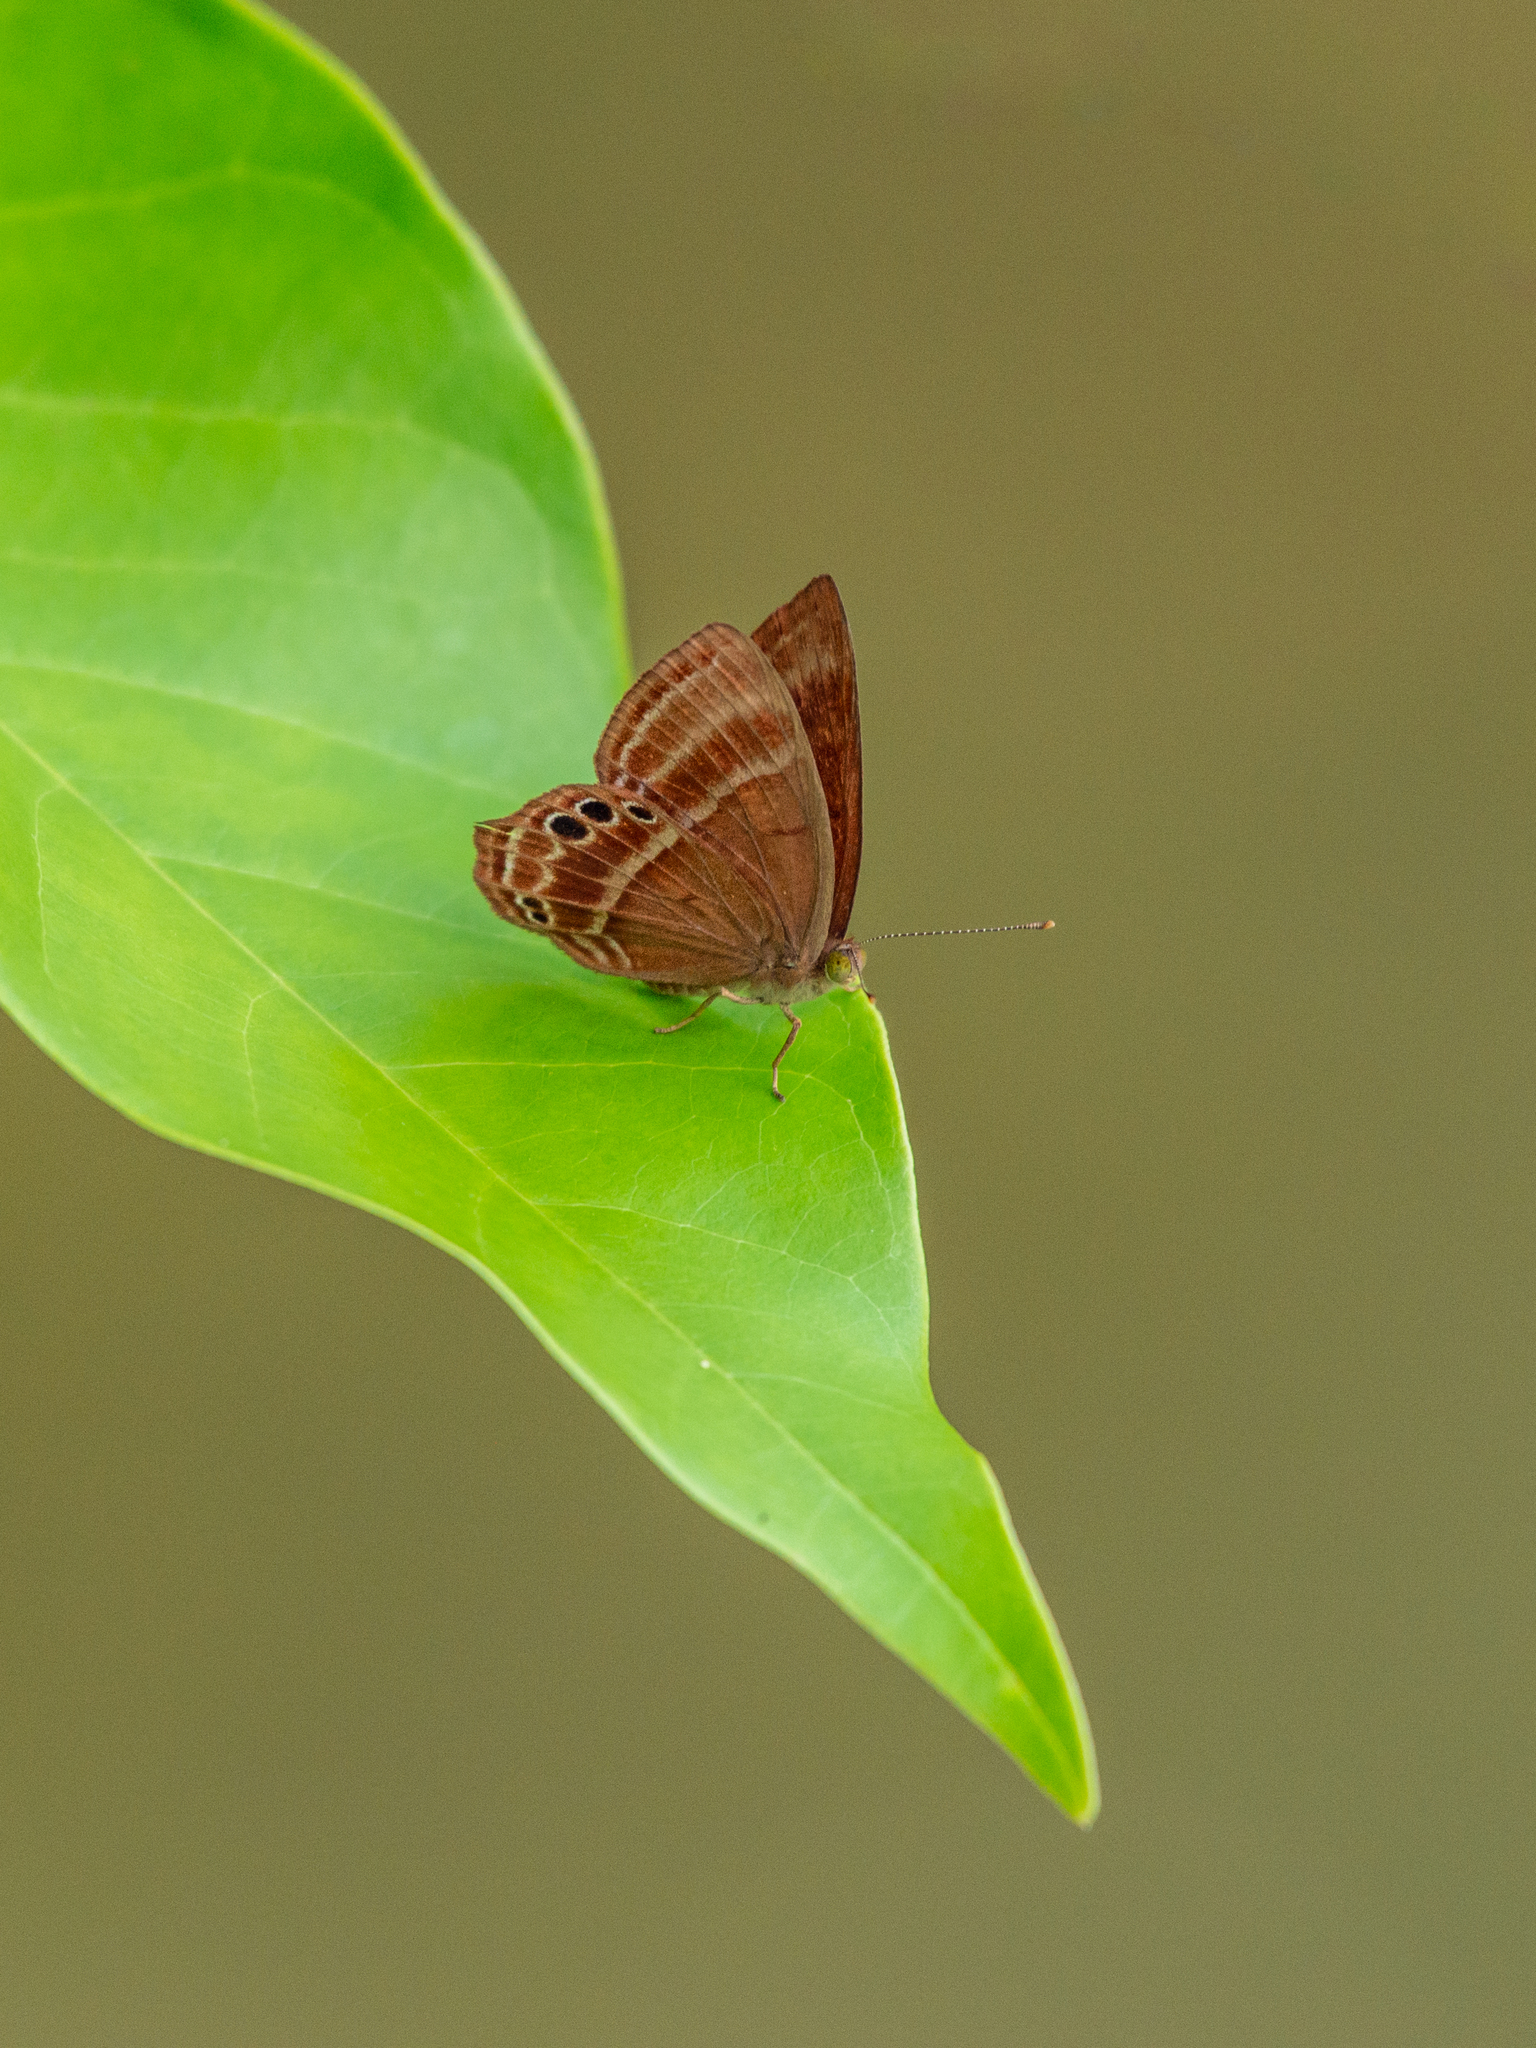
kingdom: Animalia
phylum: Arthropoda
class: Insecta
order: Lepidoptera
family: Lycaenidae
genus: Abisara
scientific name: Abisara echeria
